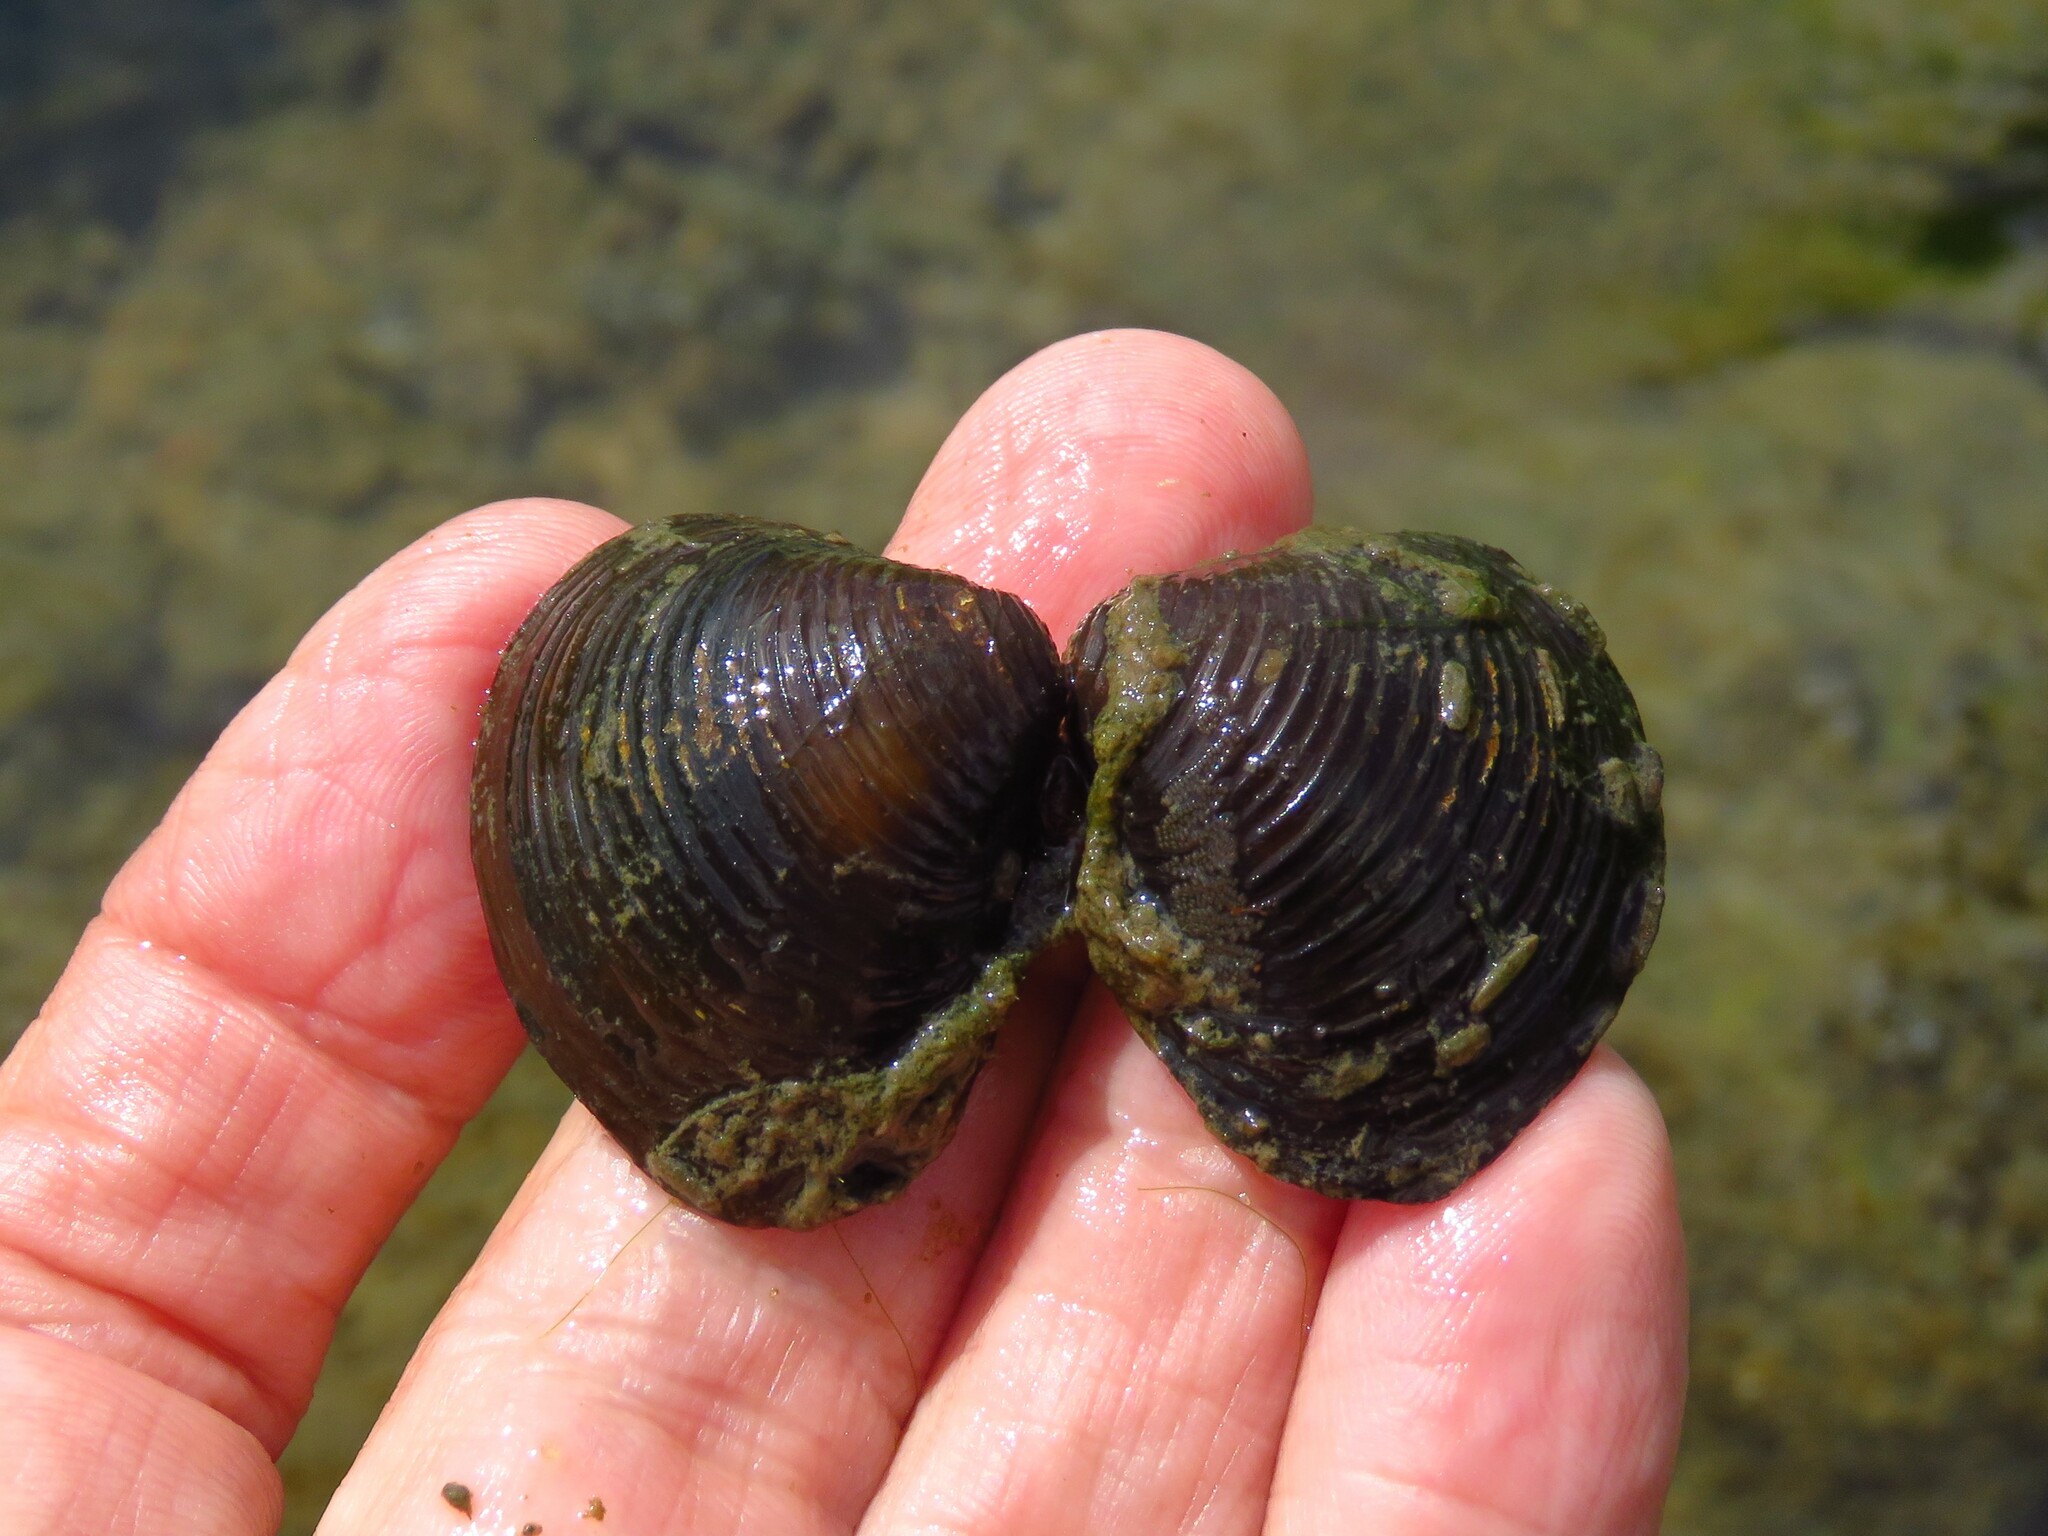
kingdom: Animalia
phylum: Mollusca
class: Bivalvia
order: Venerida
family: Cyrenidae
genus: Corbicula
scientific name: Corbicula fluminea
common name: Asian clam
